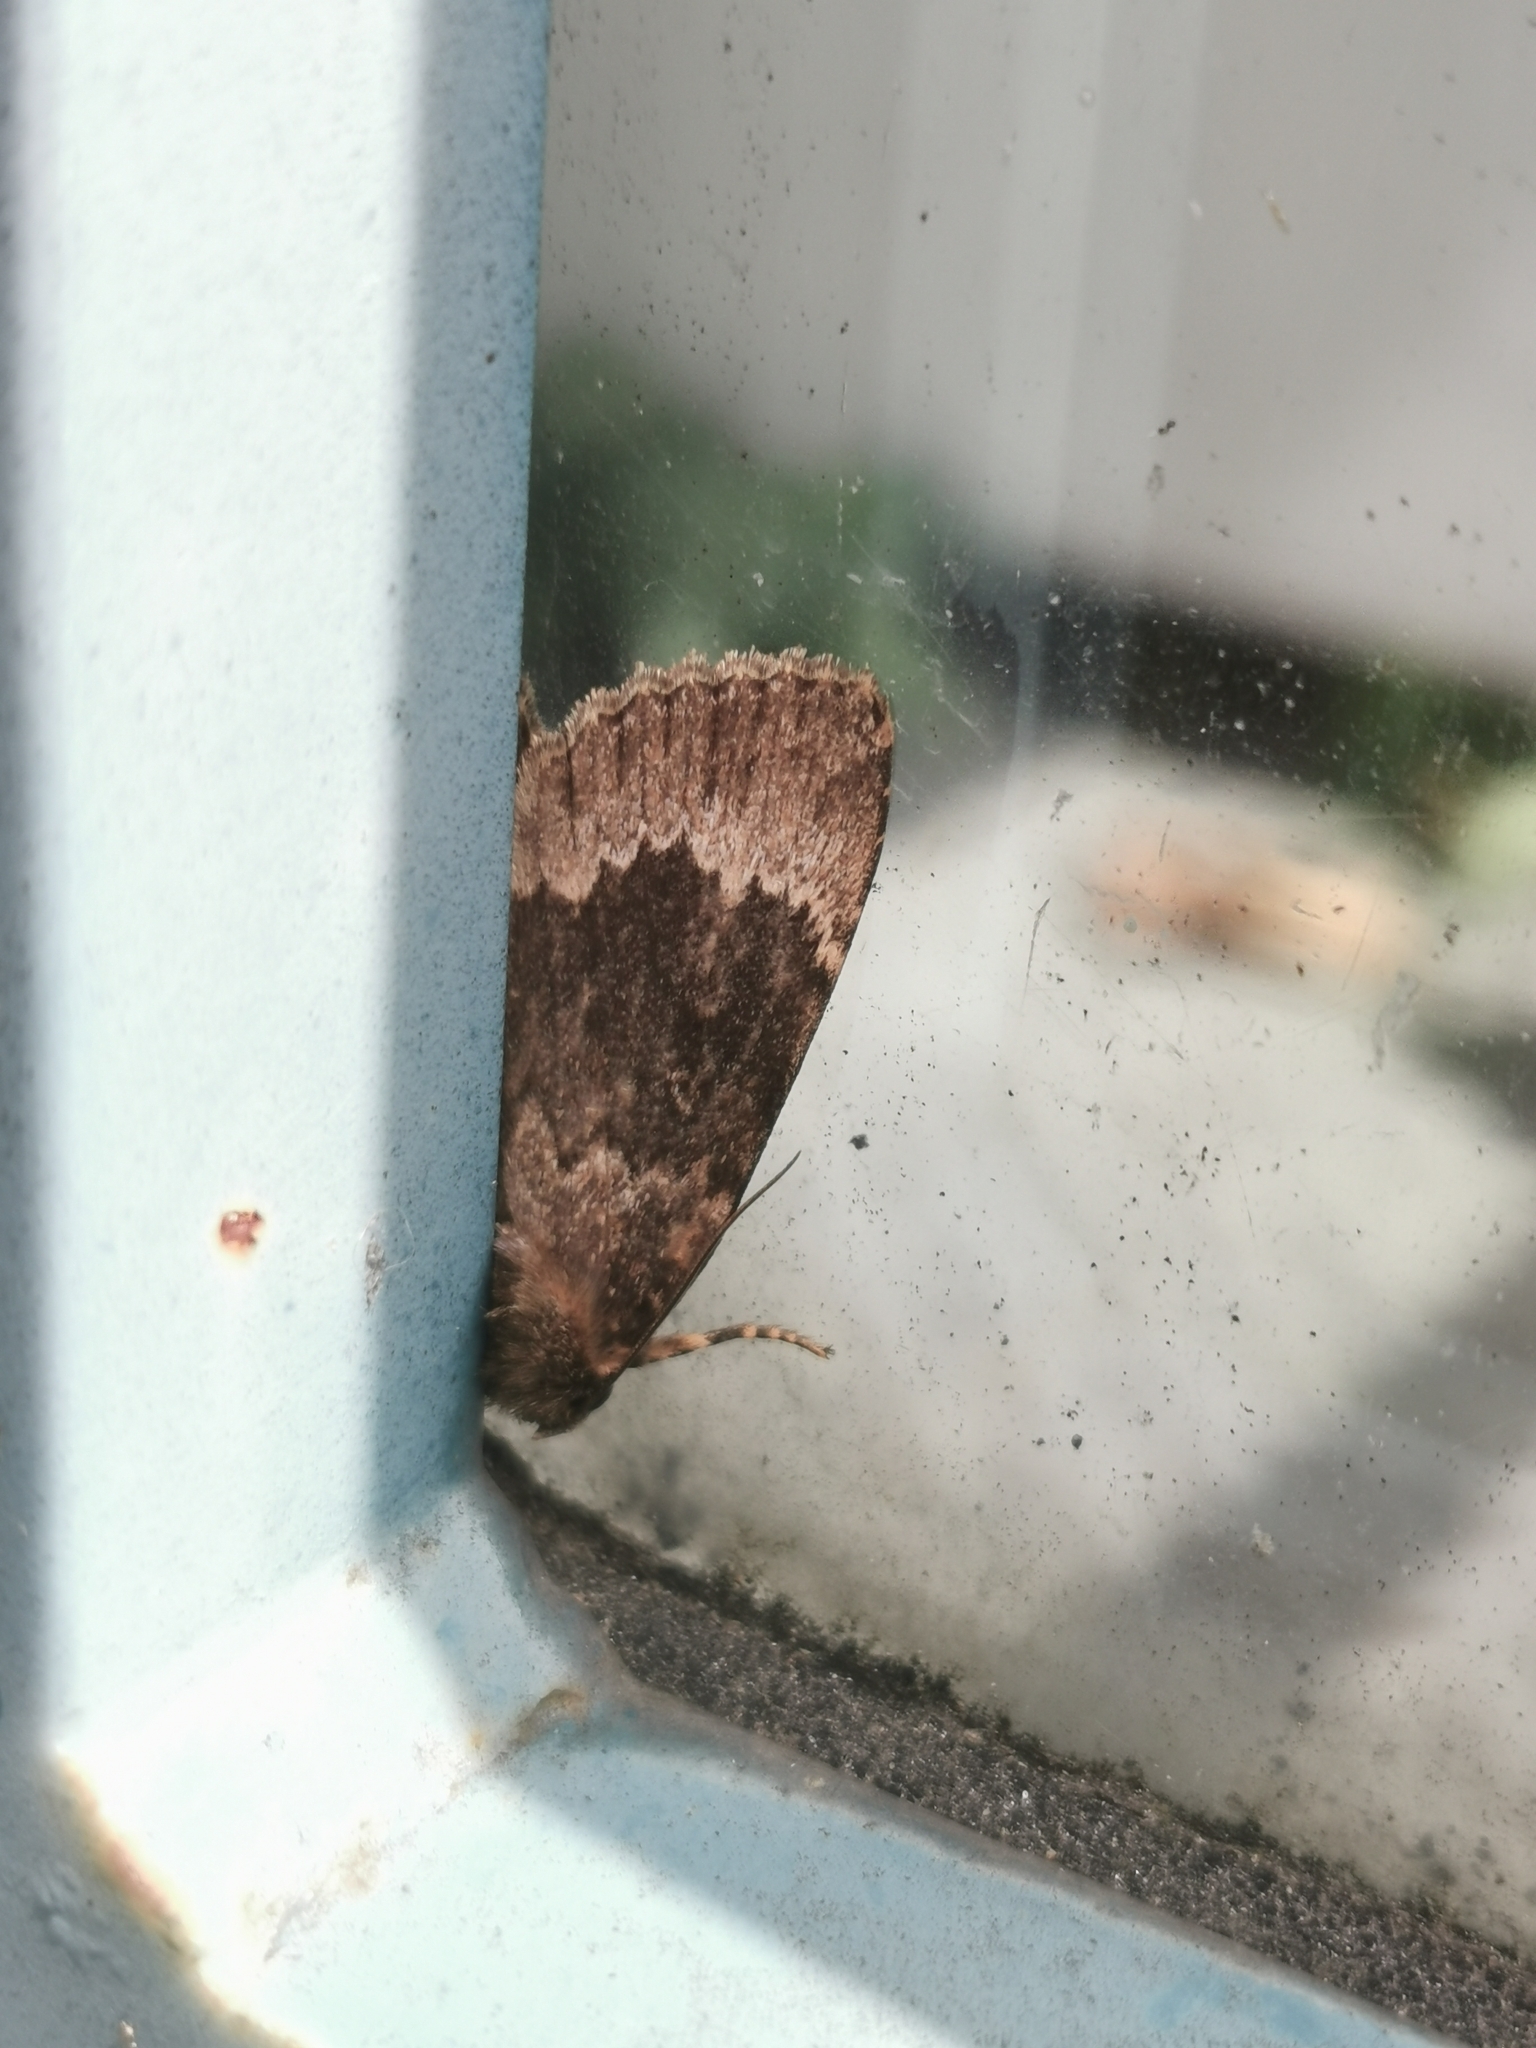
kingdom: Animalia
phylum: Arthropoda
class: Insecta
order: Lepidoptera
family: Noctuidae
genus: Amphipyra
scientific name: Amphipyra perflua
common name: Larger pale-tipped black moth
